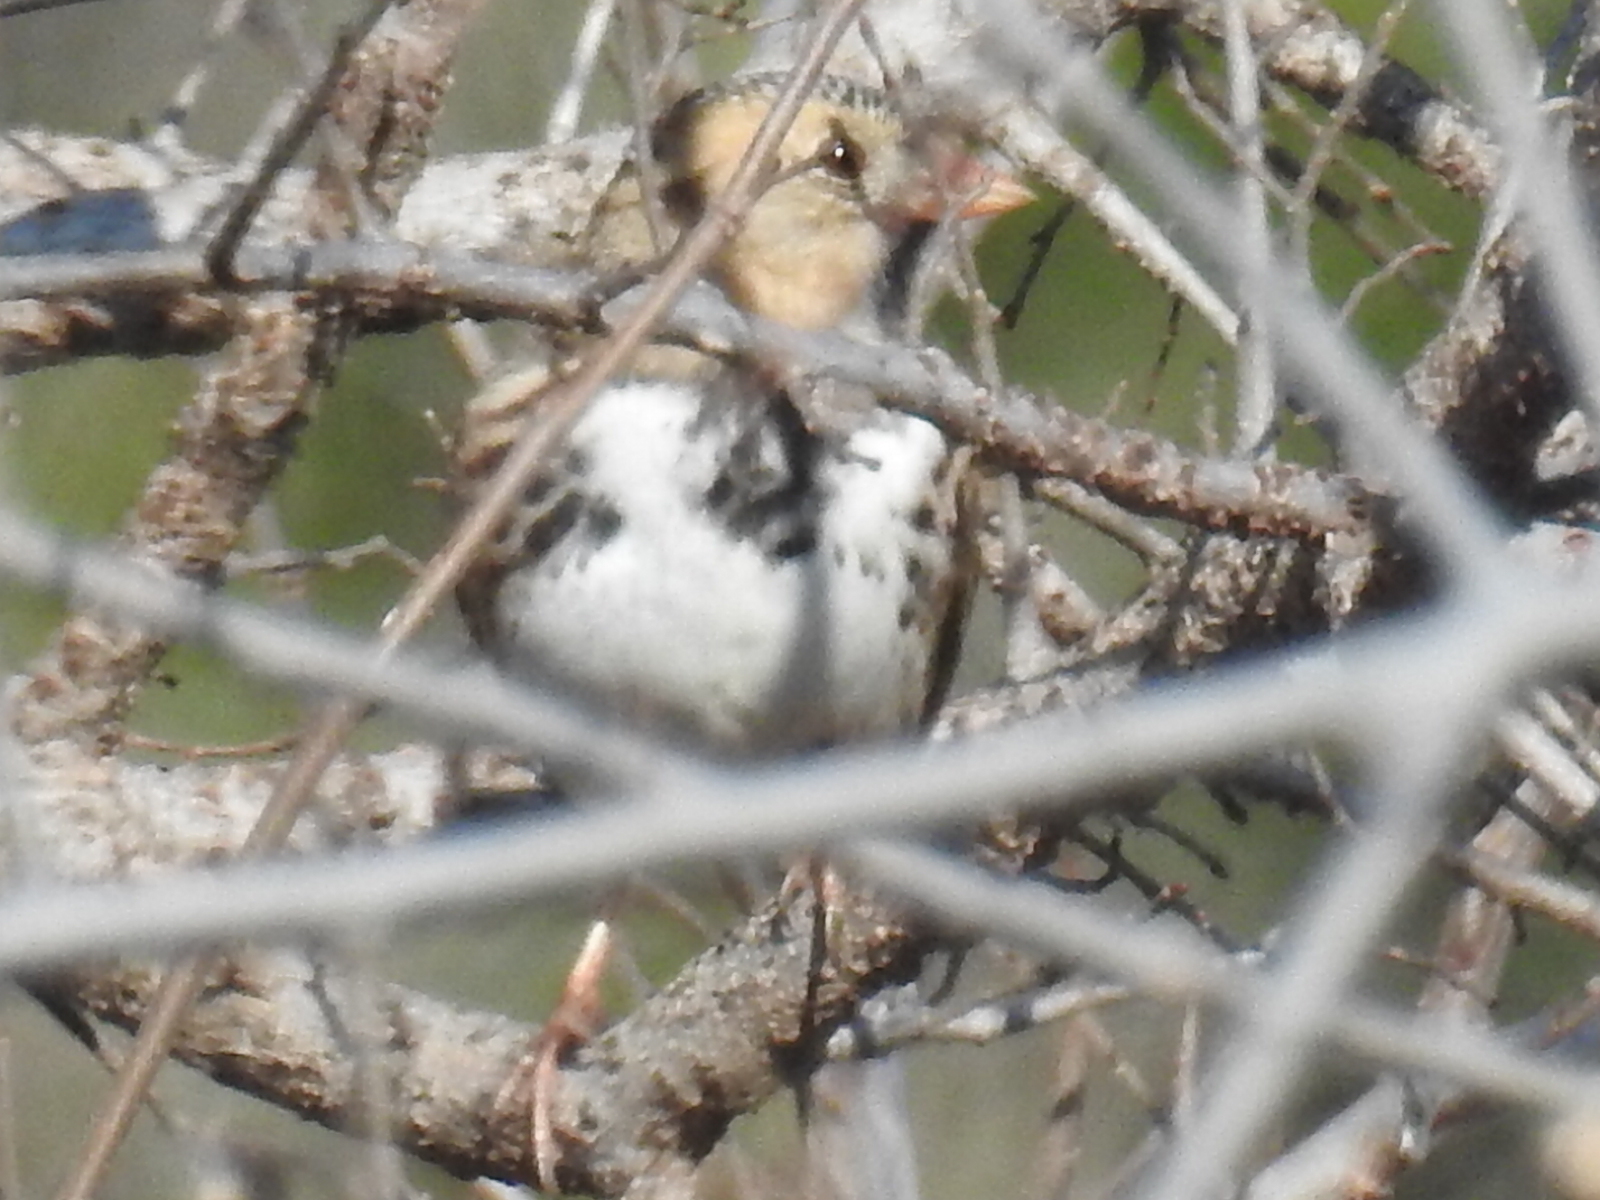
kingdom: Animalia
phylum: Chordata
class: Aves
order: Passeriformes
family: Passerellidae
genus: Zonotrichia
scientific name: Zonotrichia querula
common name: Harris's sparrow
